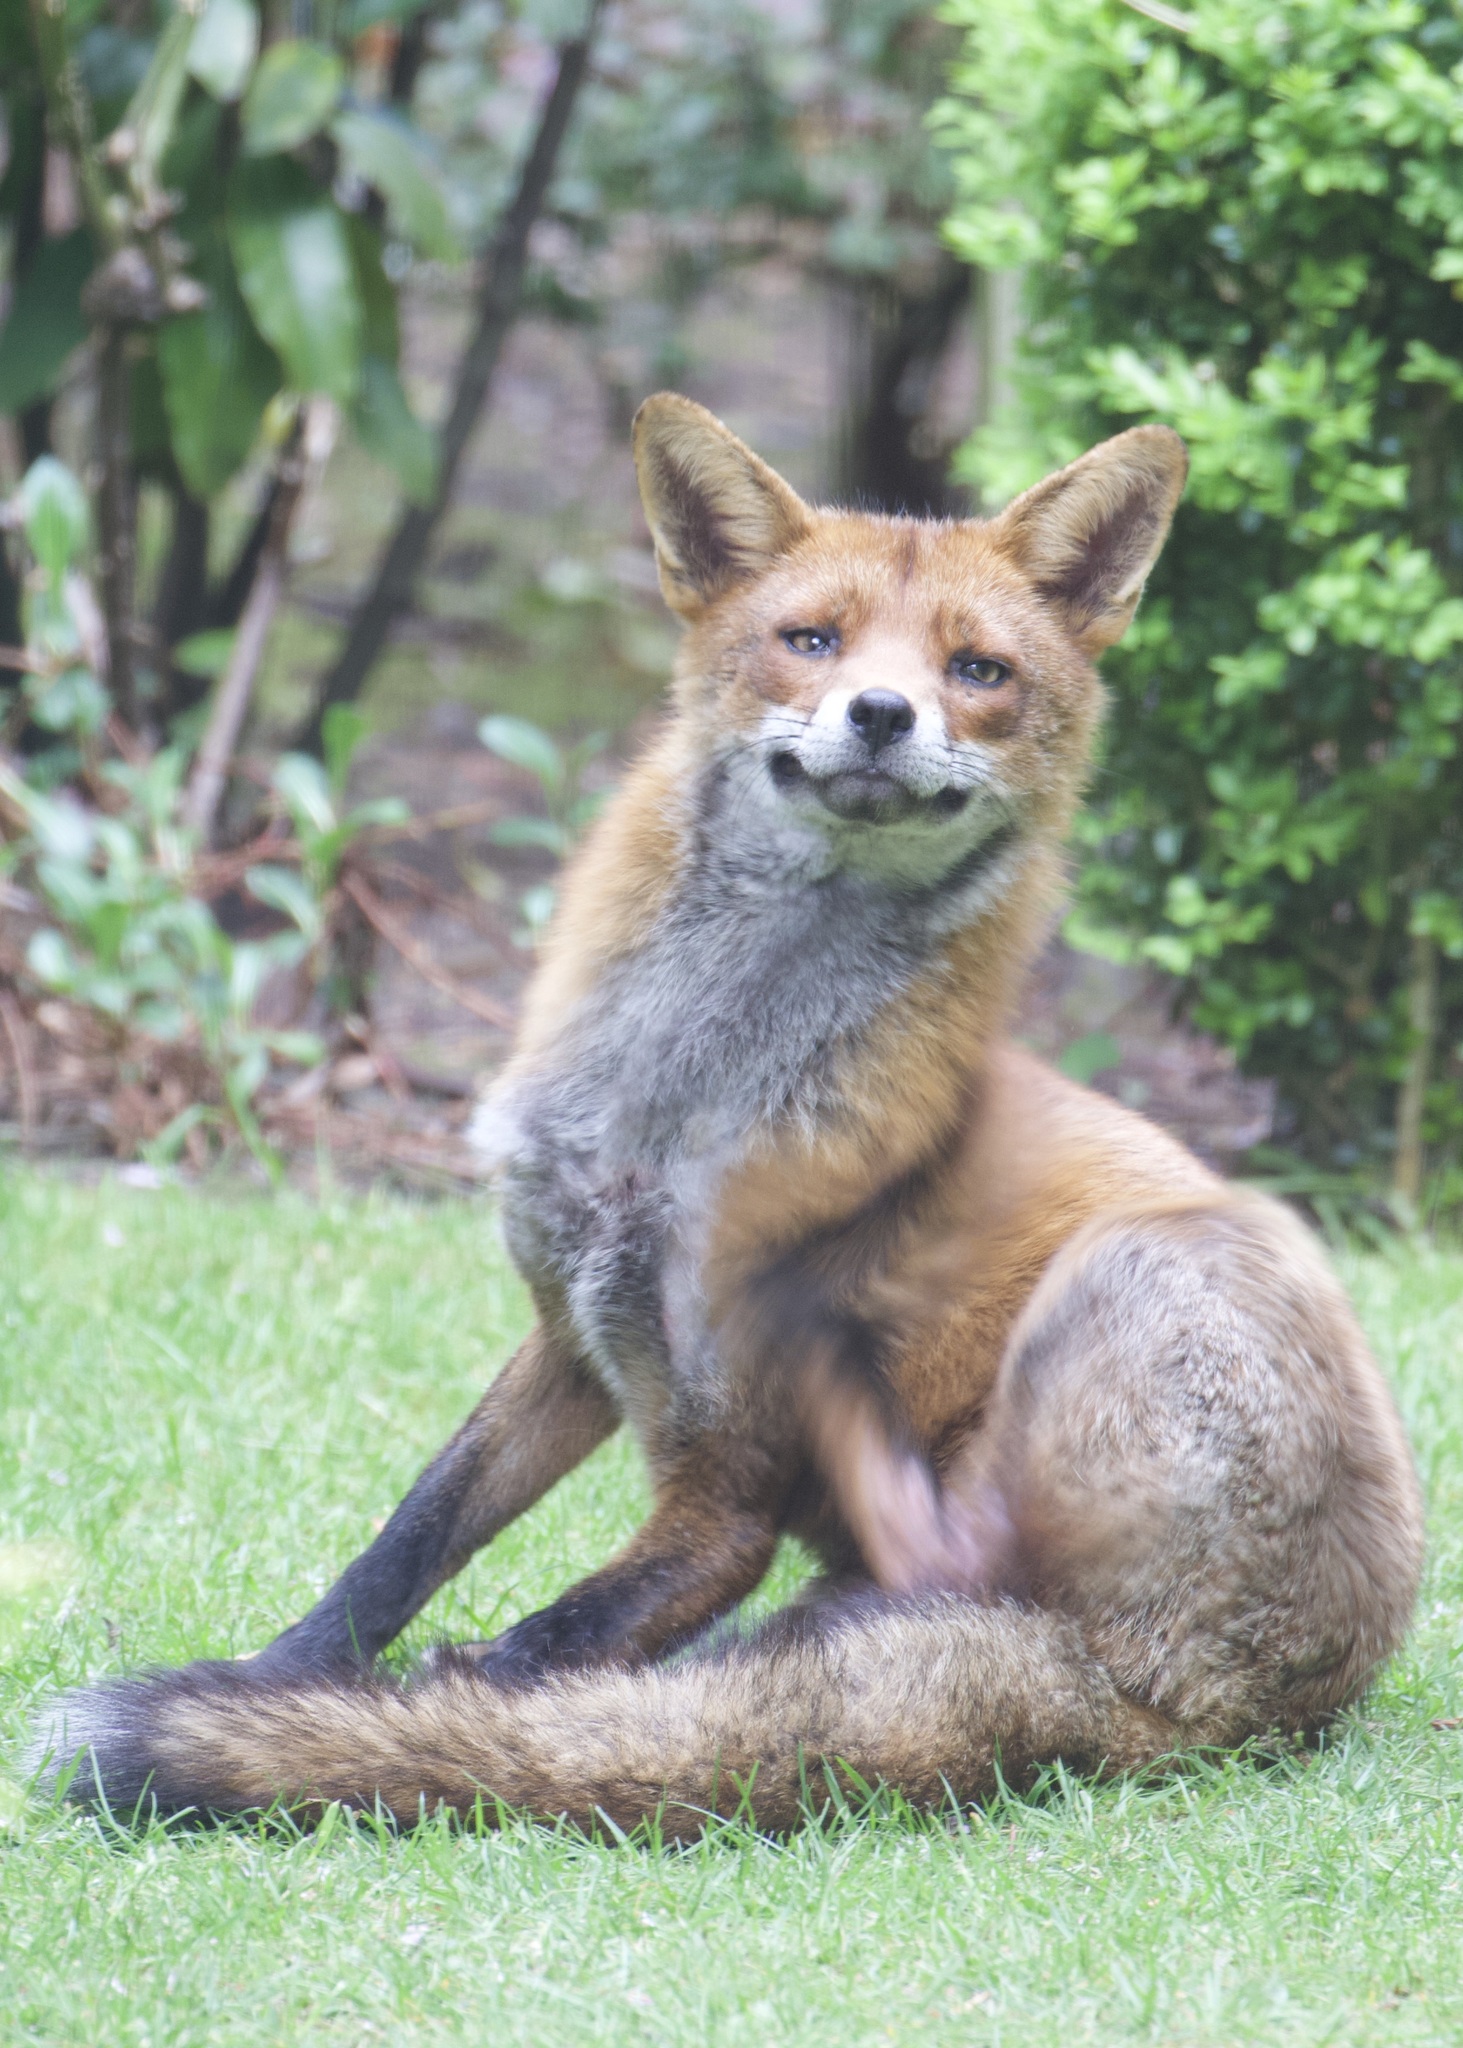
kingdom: Animalia
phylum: Chordata
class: Mammalia
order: Carnivora
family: Canidae
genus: Vulpes
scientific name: Vulpes vulpes
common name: Red fox
